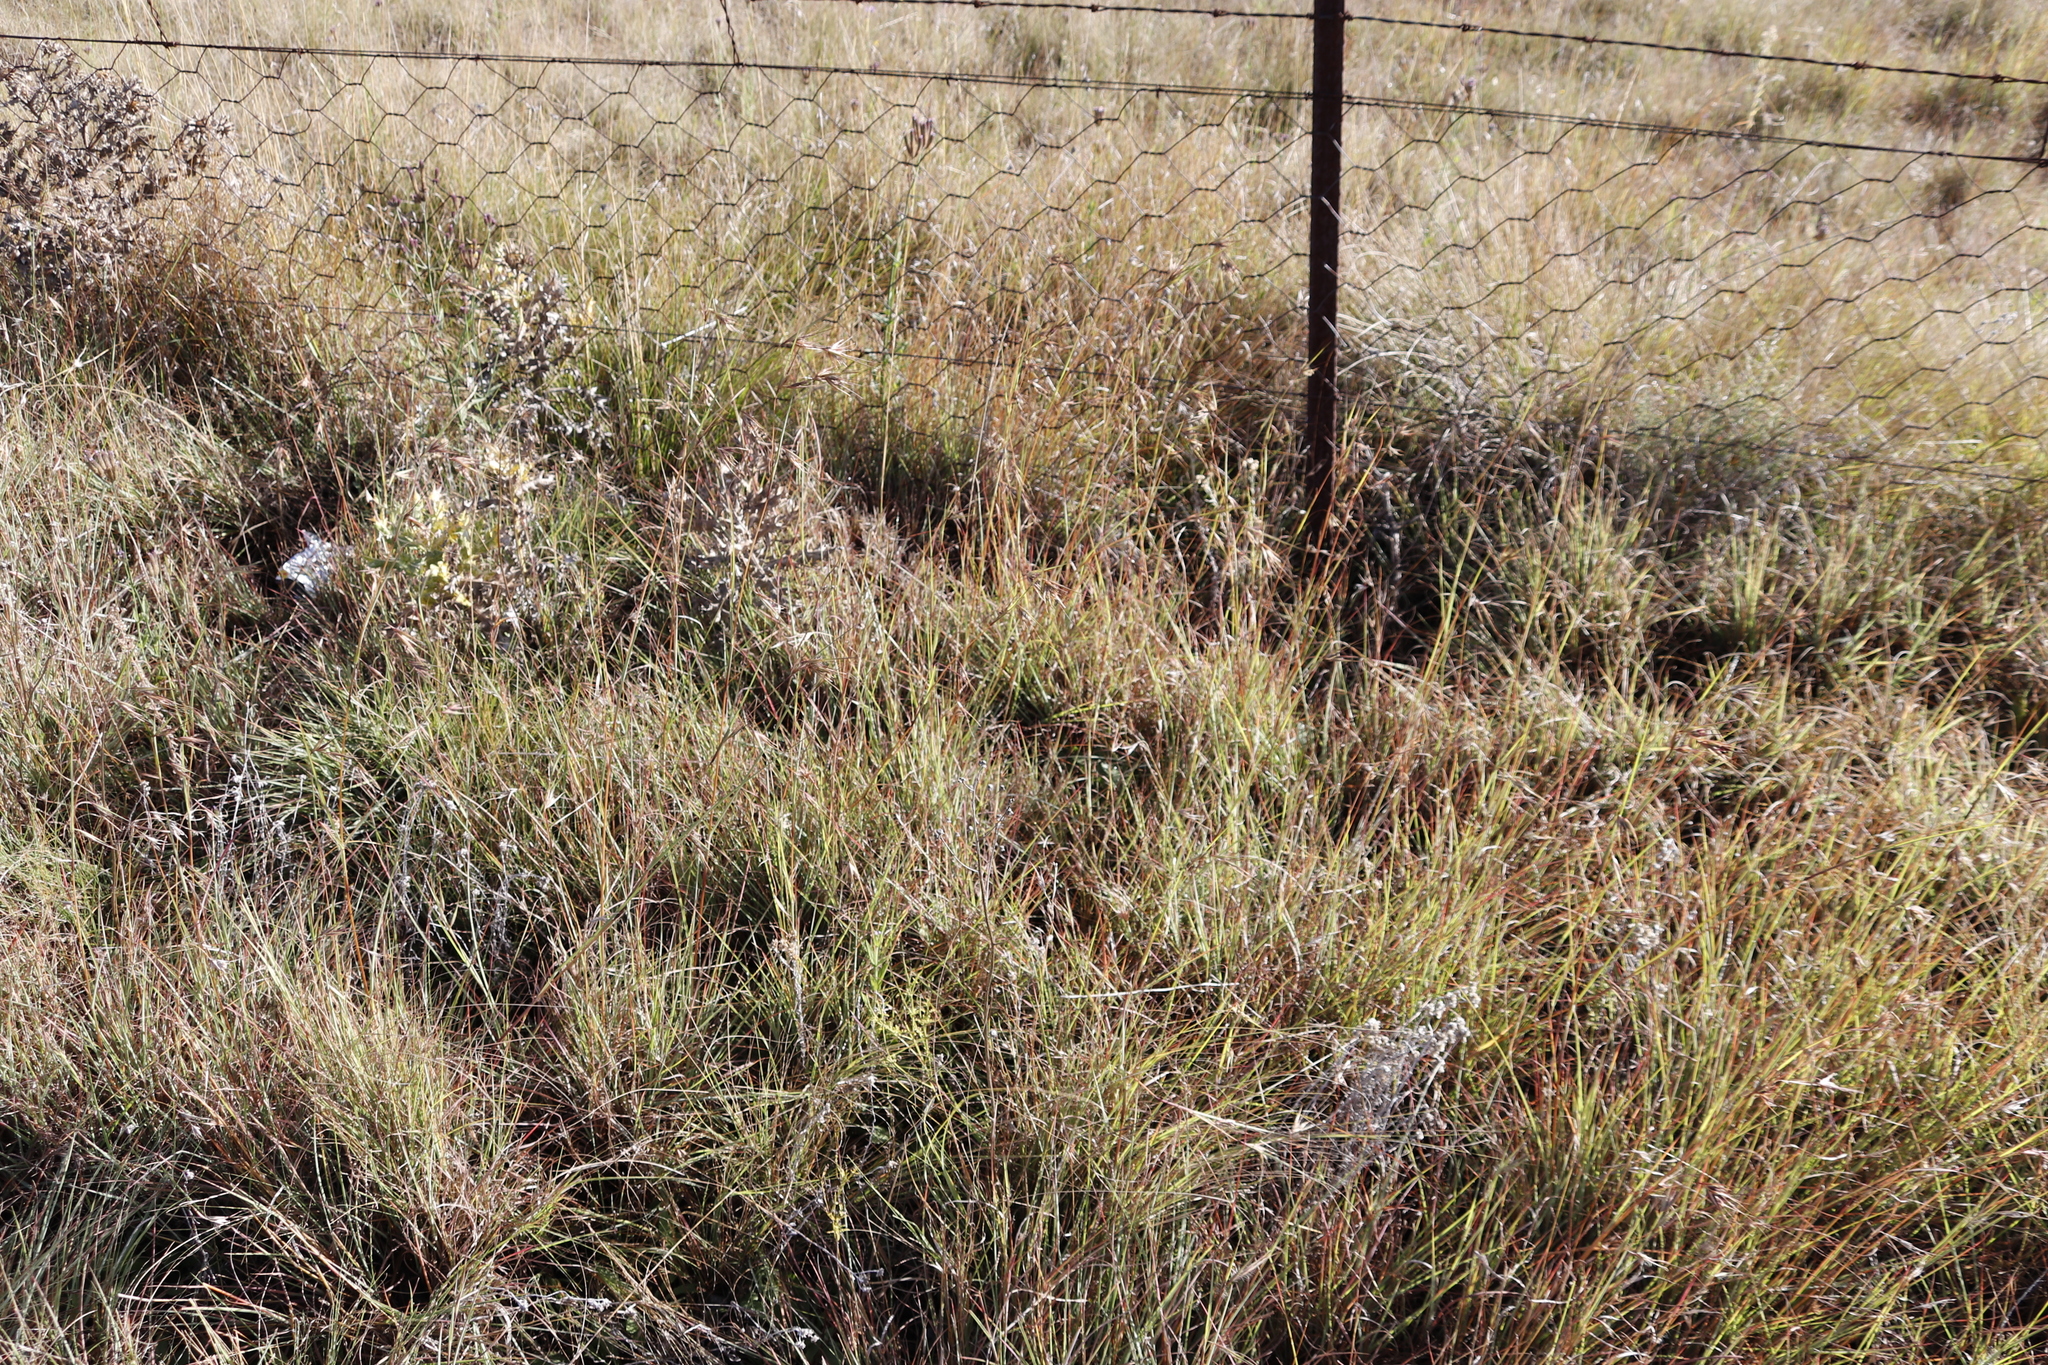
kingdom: Plantae
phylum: Tracheophyta
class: Liliopsida
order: Poales
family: Poaceae
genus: Themeda
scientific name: Themeda triandra
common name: Kangaroo grass
